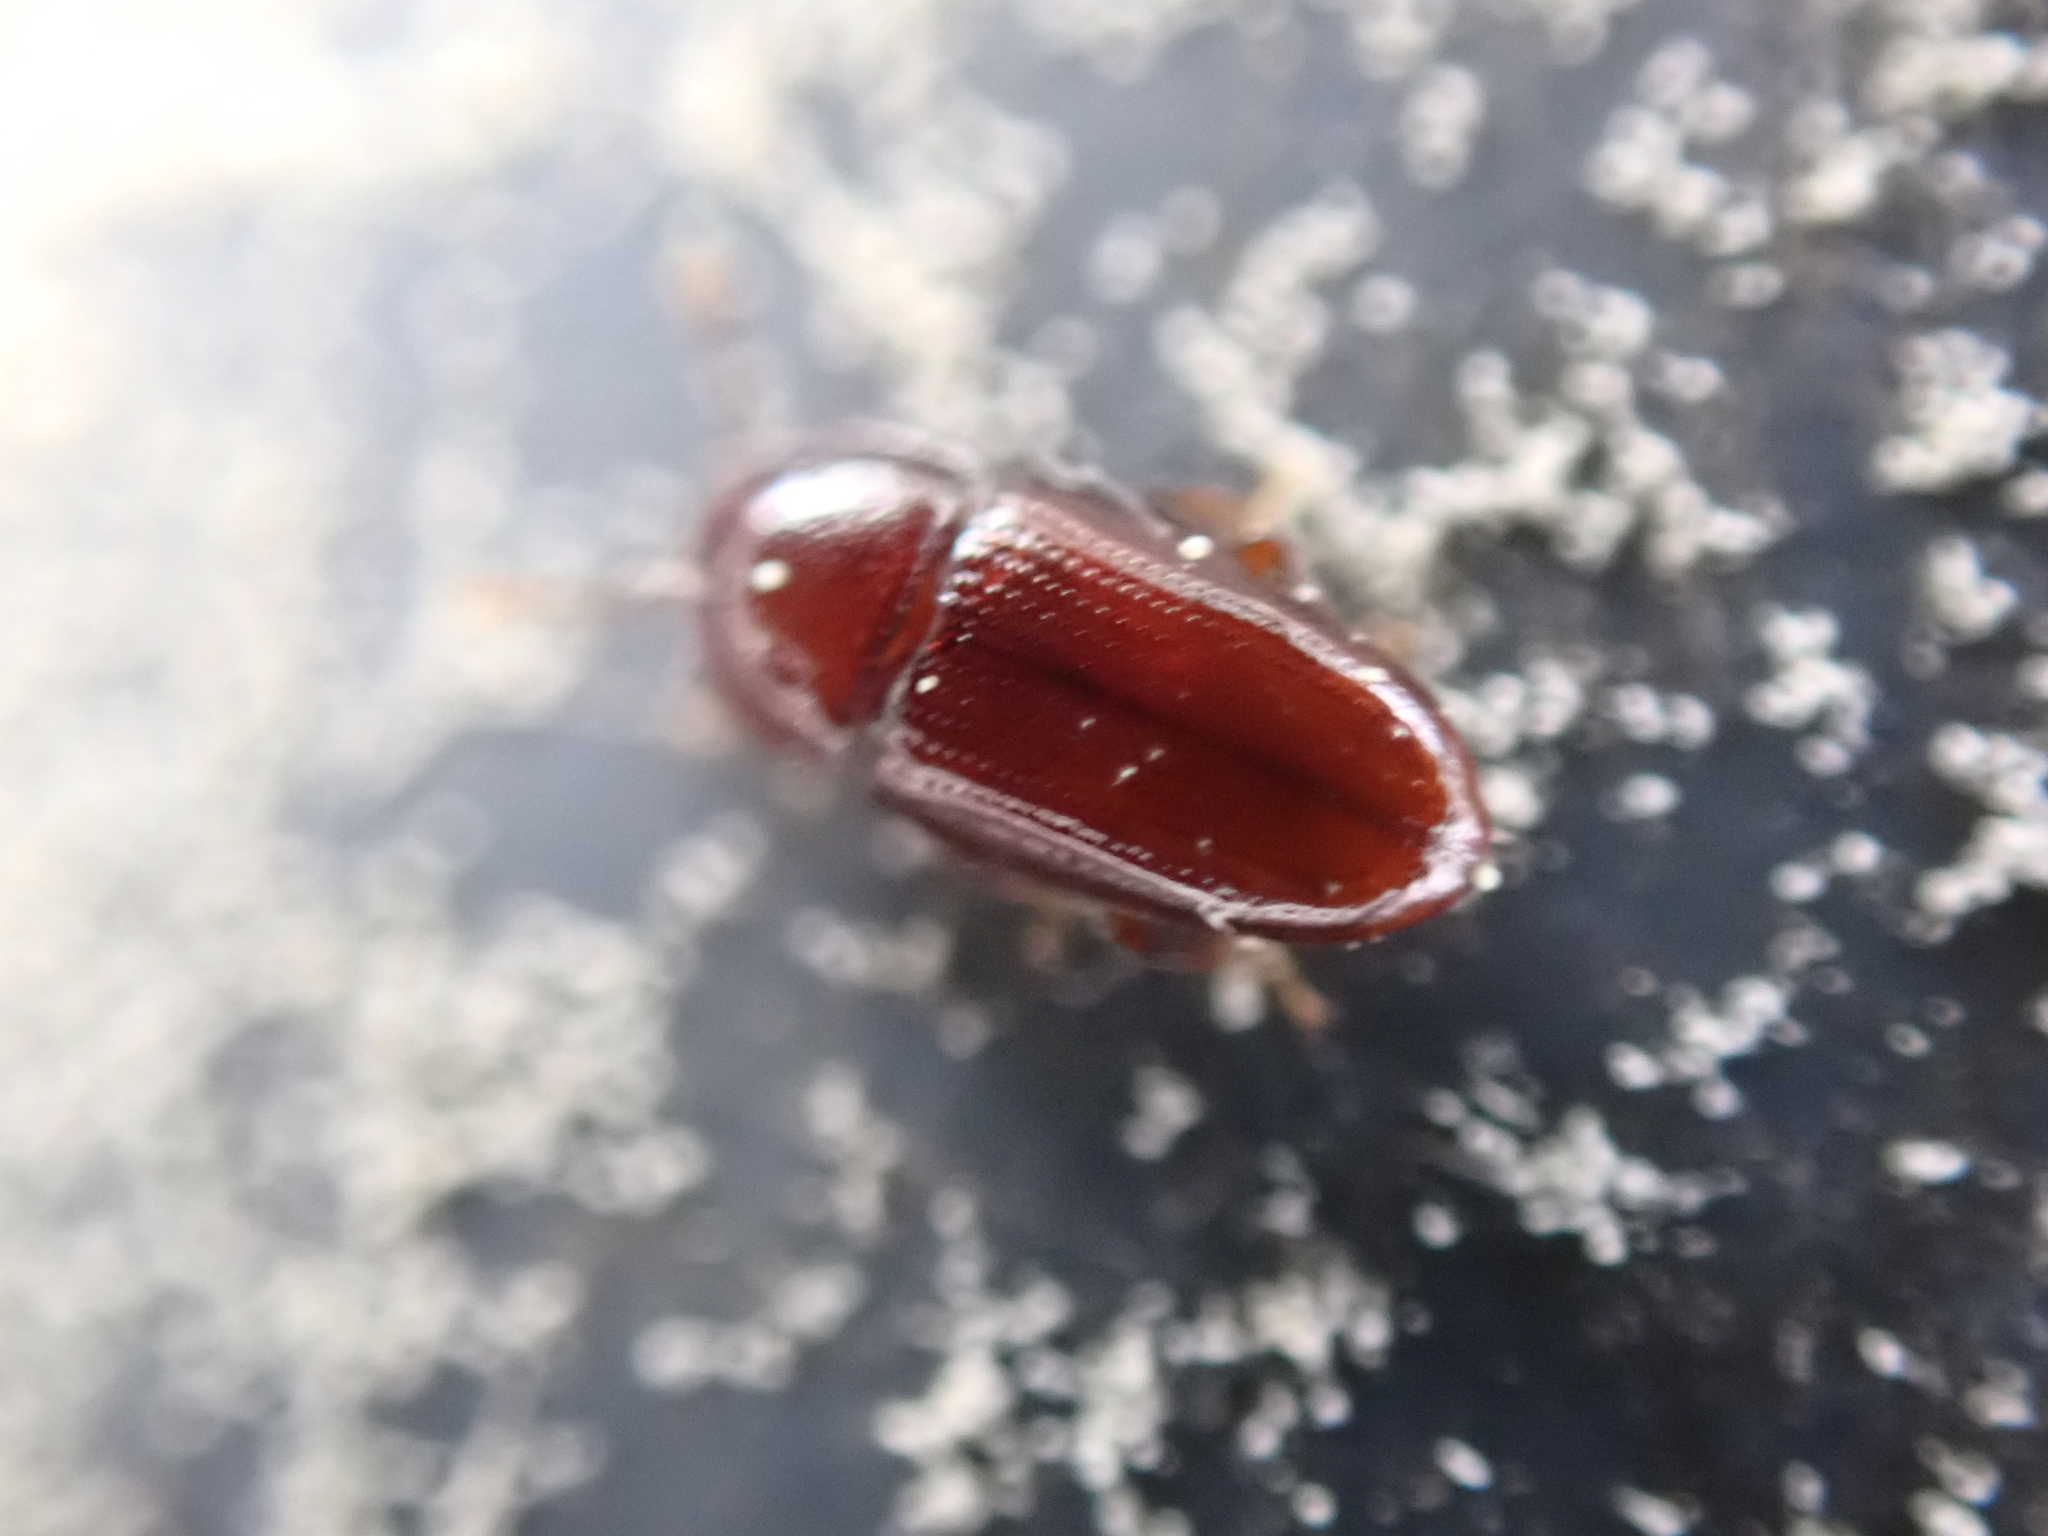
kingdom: Animalia
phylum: Arthropoda
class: Insecta
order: Coleoptera
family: Cerylonidae
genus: Philothermus
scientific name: Philothermus glabriculus
